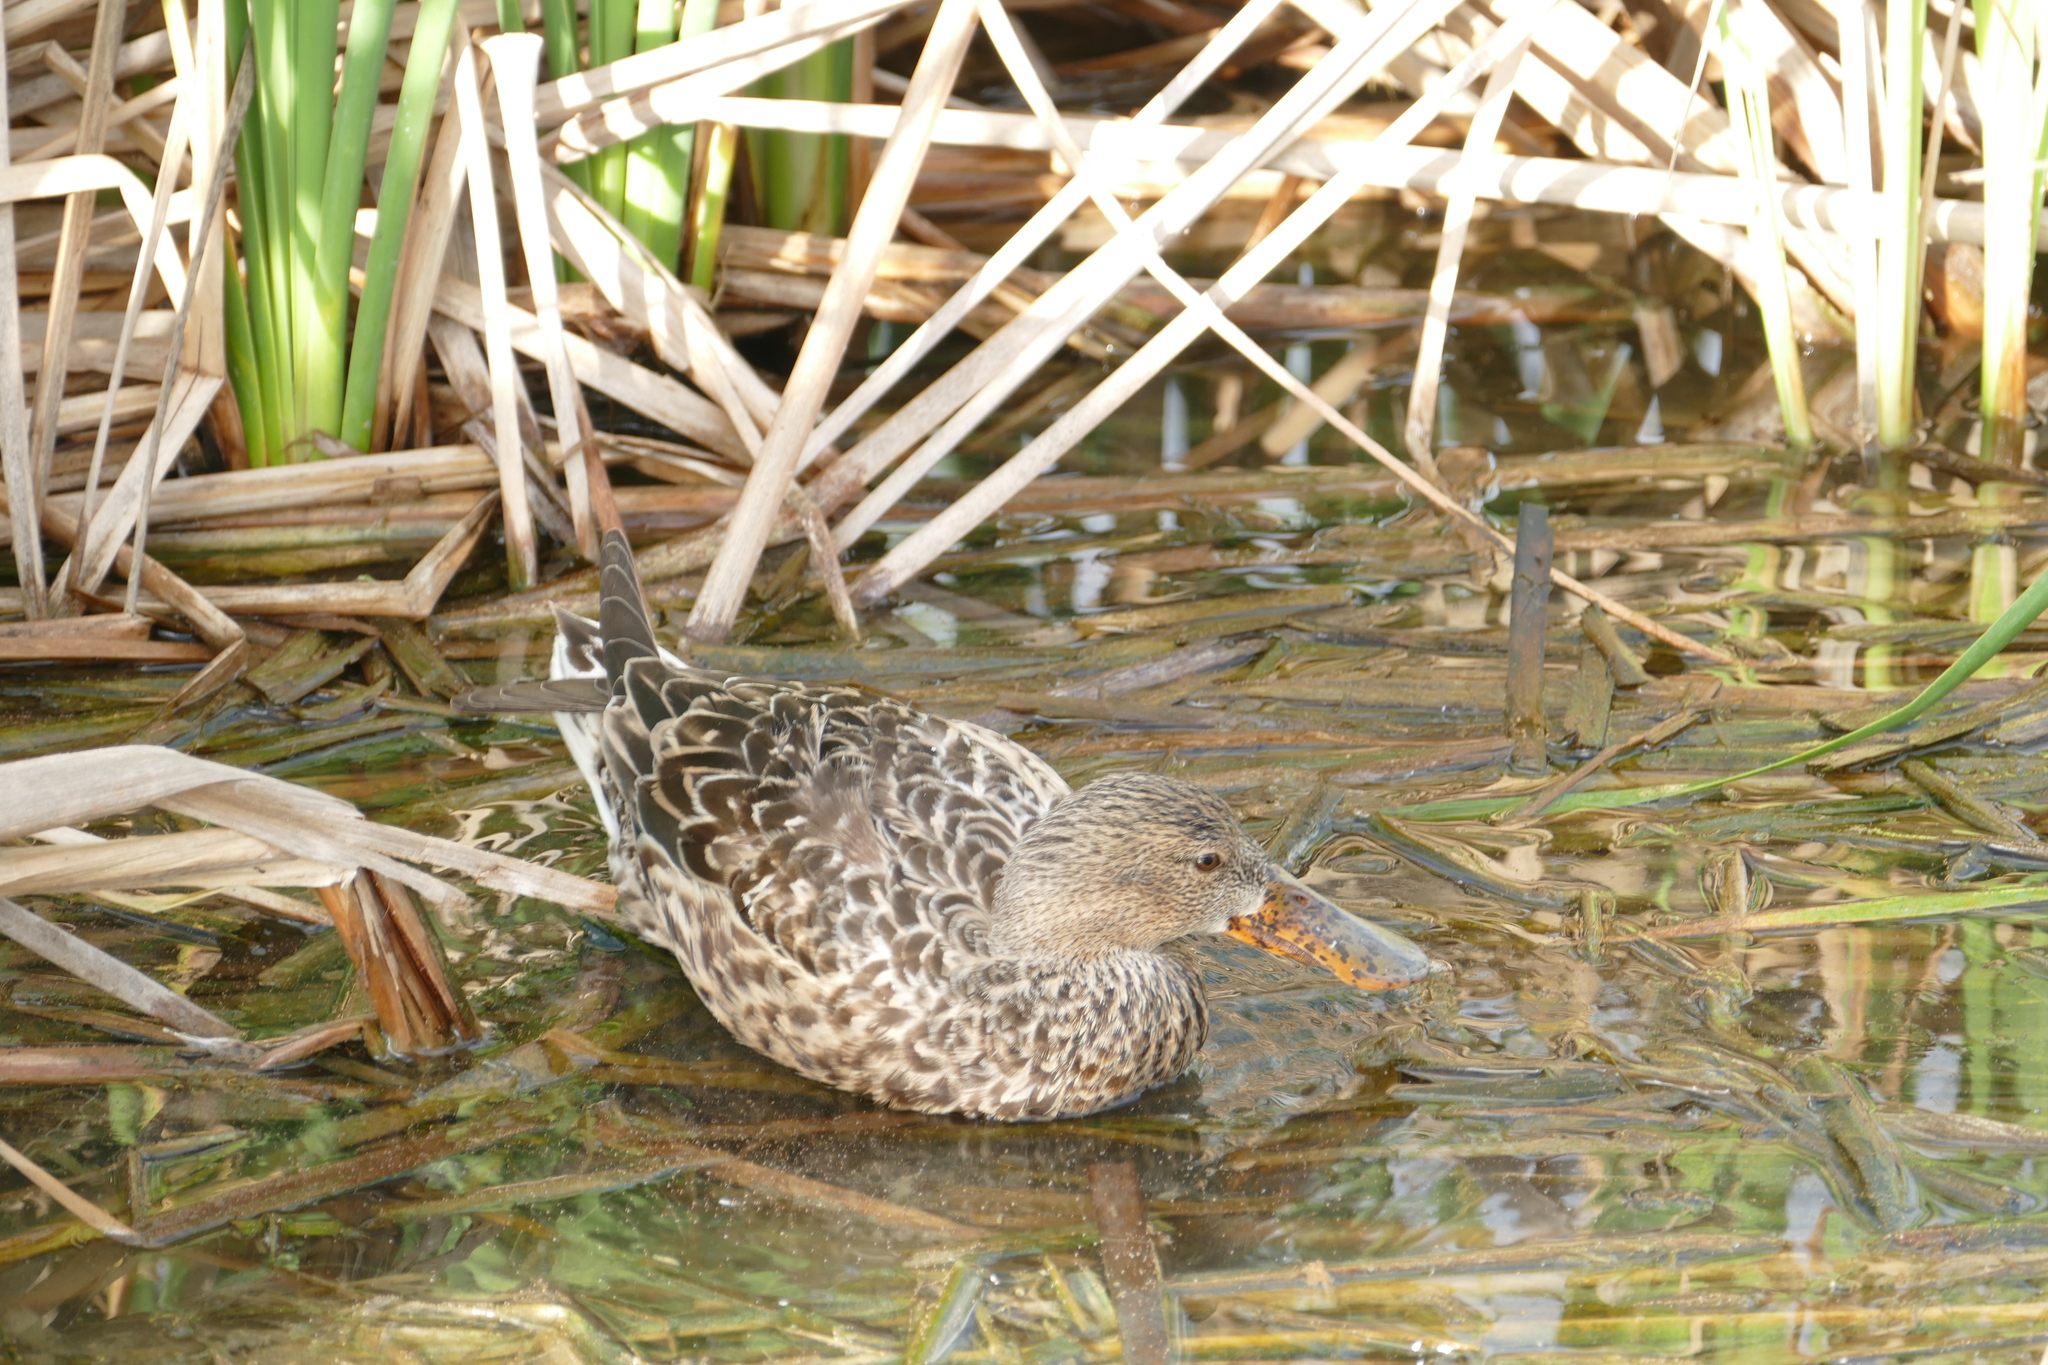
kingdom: Animalia
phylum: Chordata
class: Aves
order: Anseriformes
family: Anatidae
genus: Spatula
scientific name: Spatula clypeata
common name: Northern shoveler
